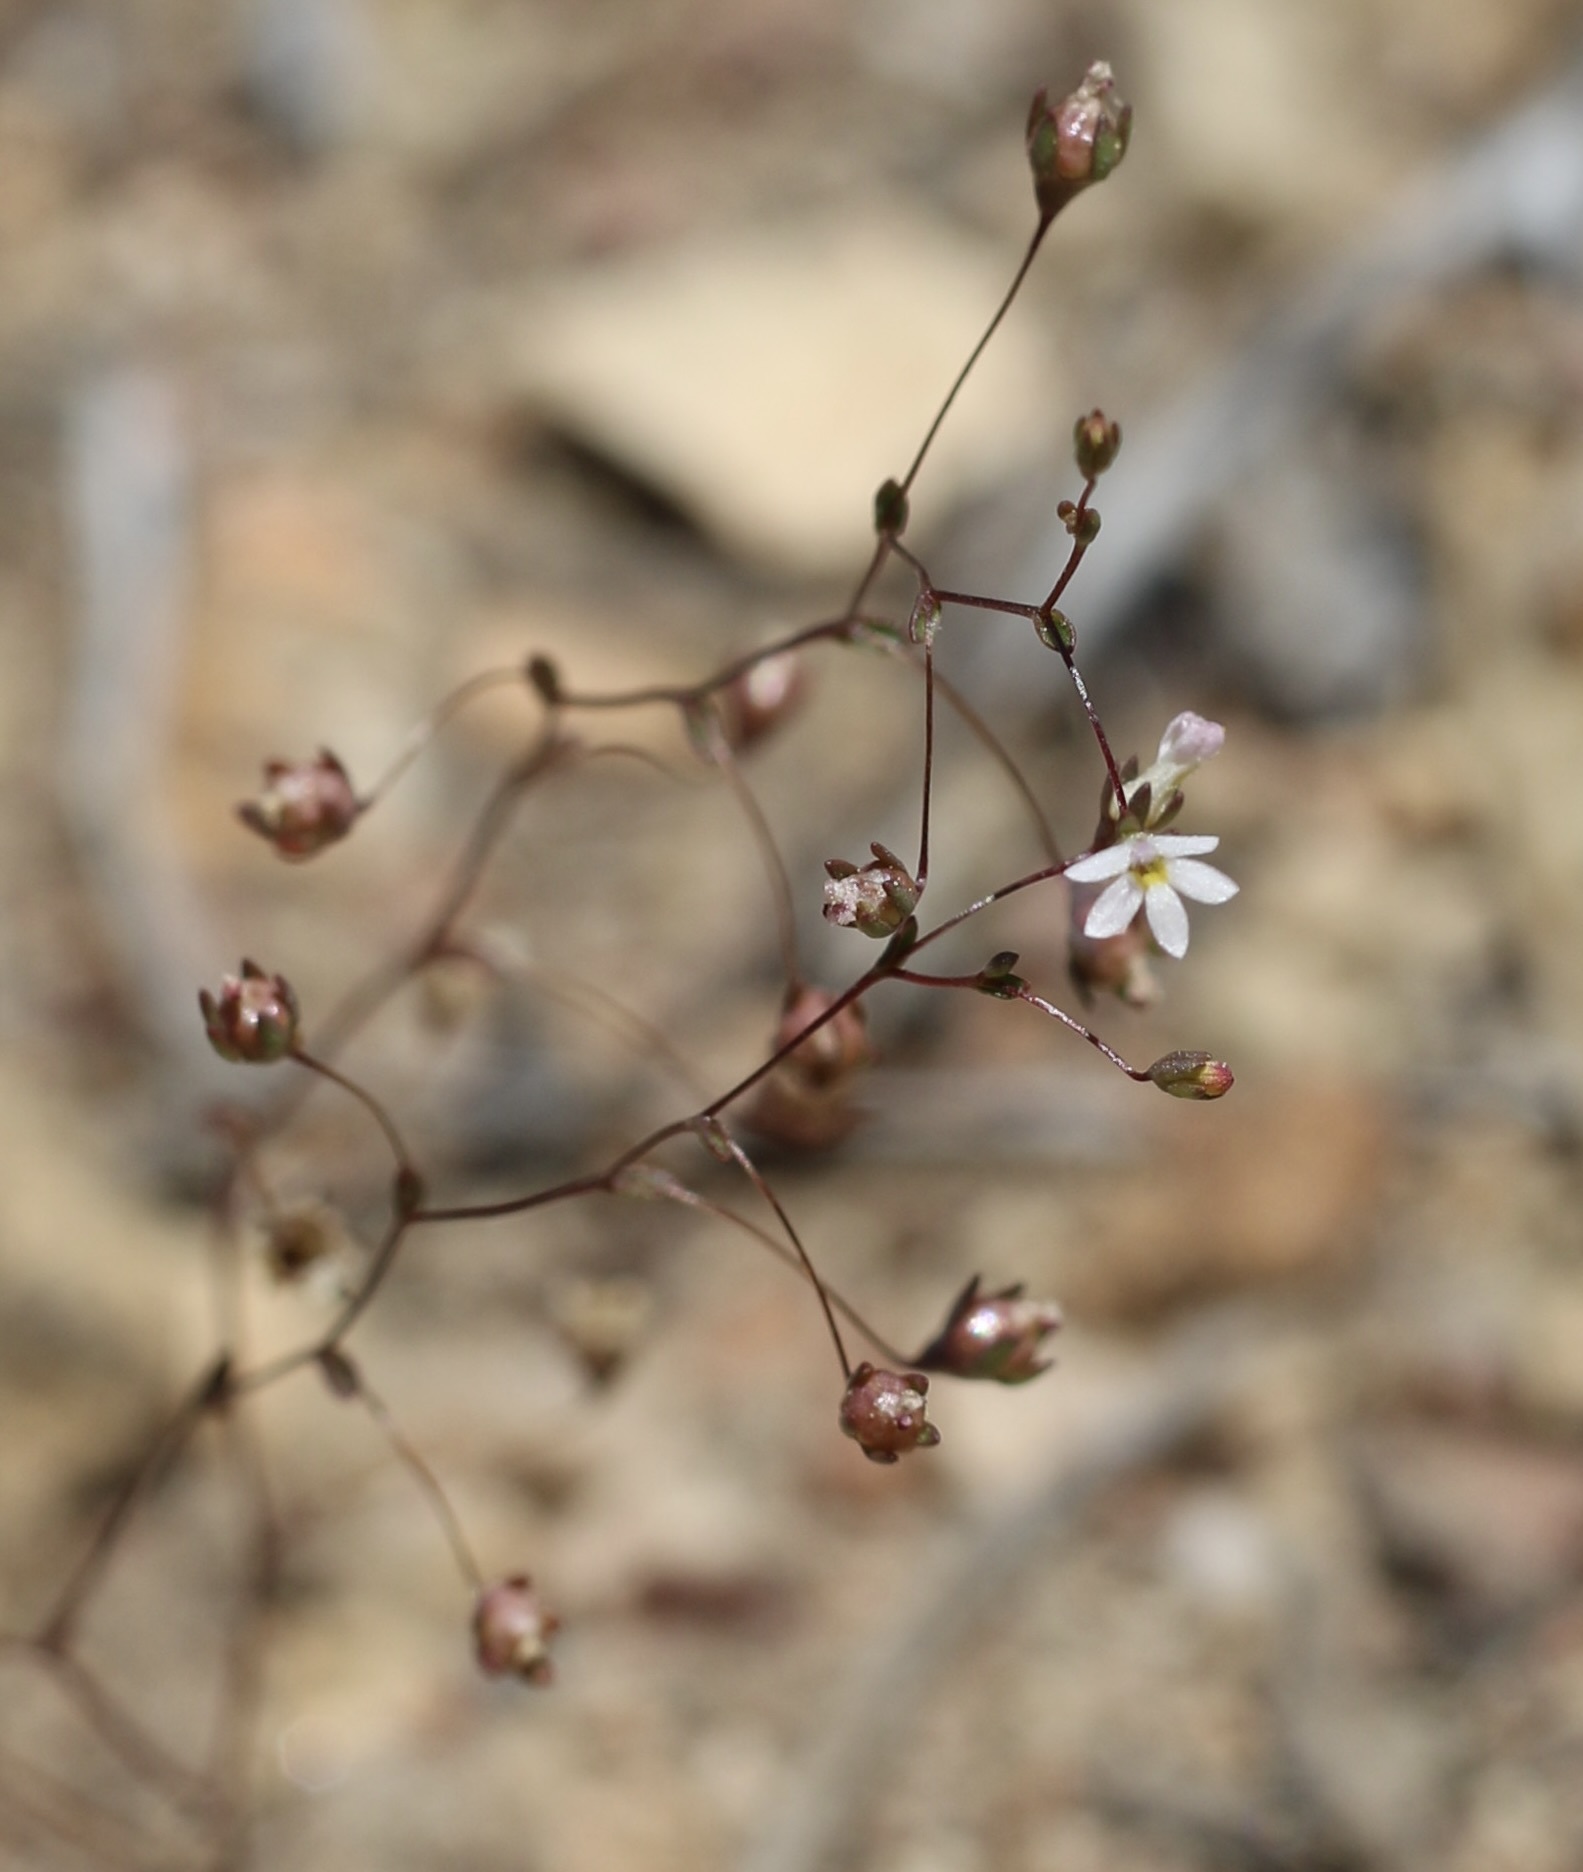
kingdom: Plantae
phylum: Tracheophyta
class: Magnoliopsida
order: Asterales
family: Campanulaceae
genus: Nemacladus
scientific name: Nemacladus sigmoideus
